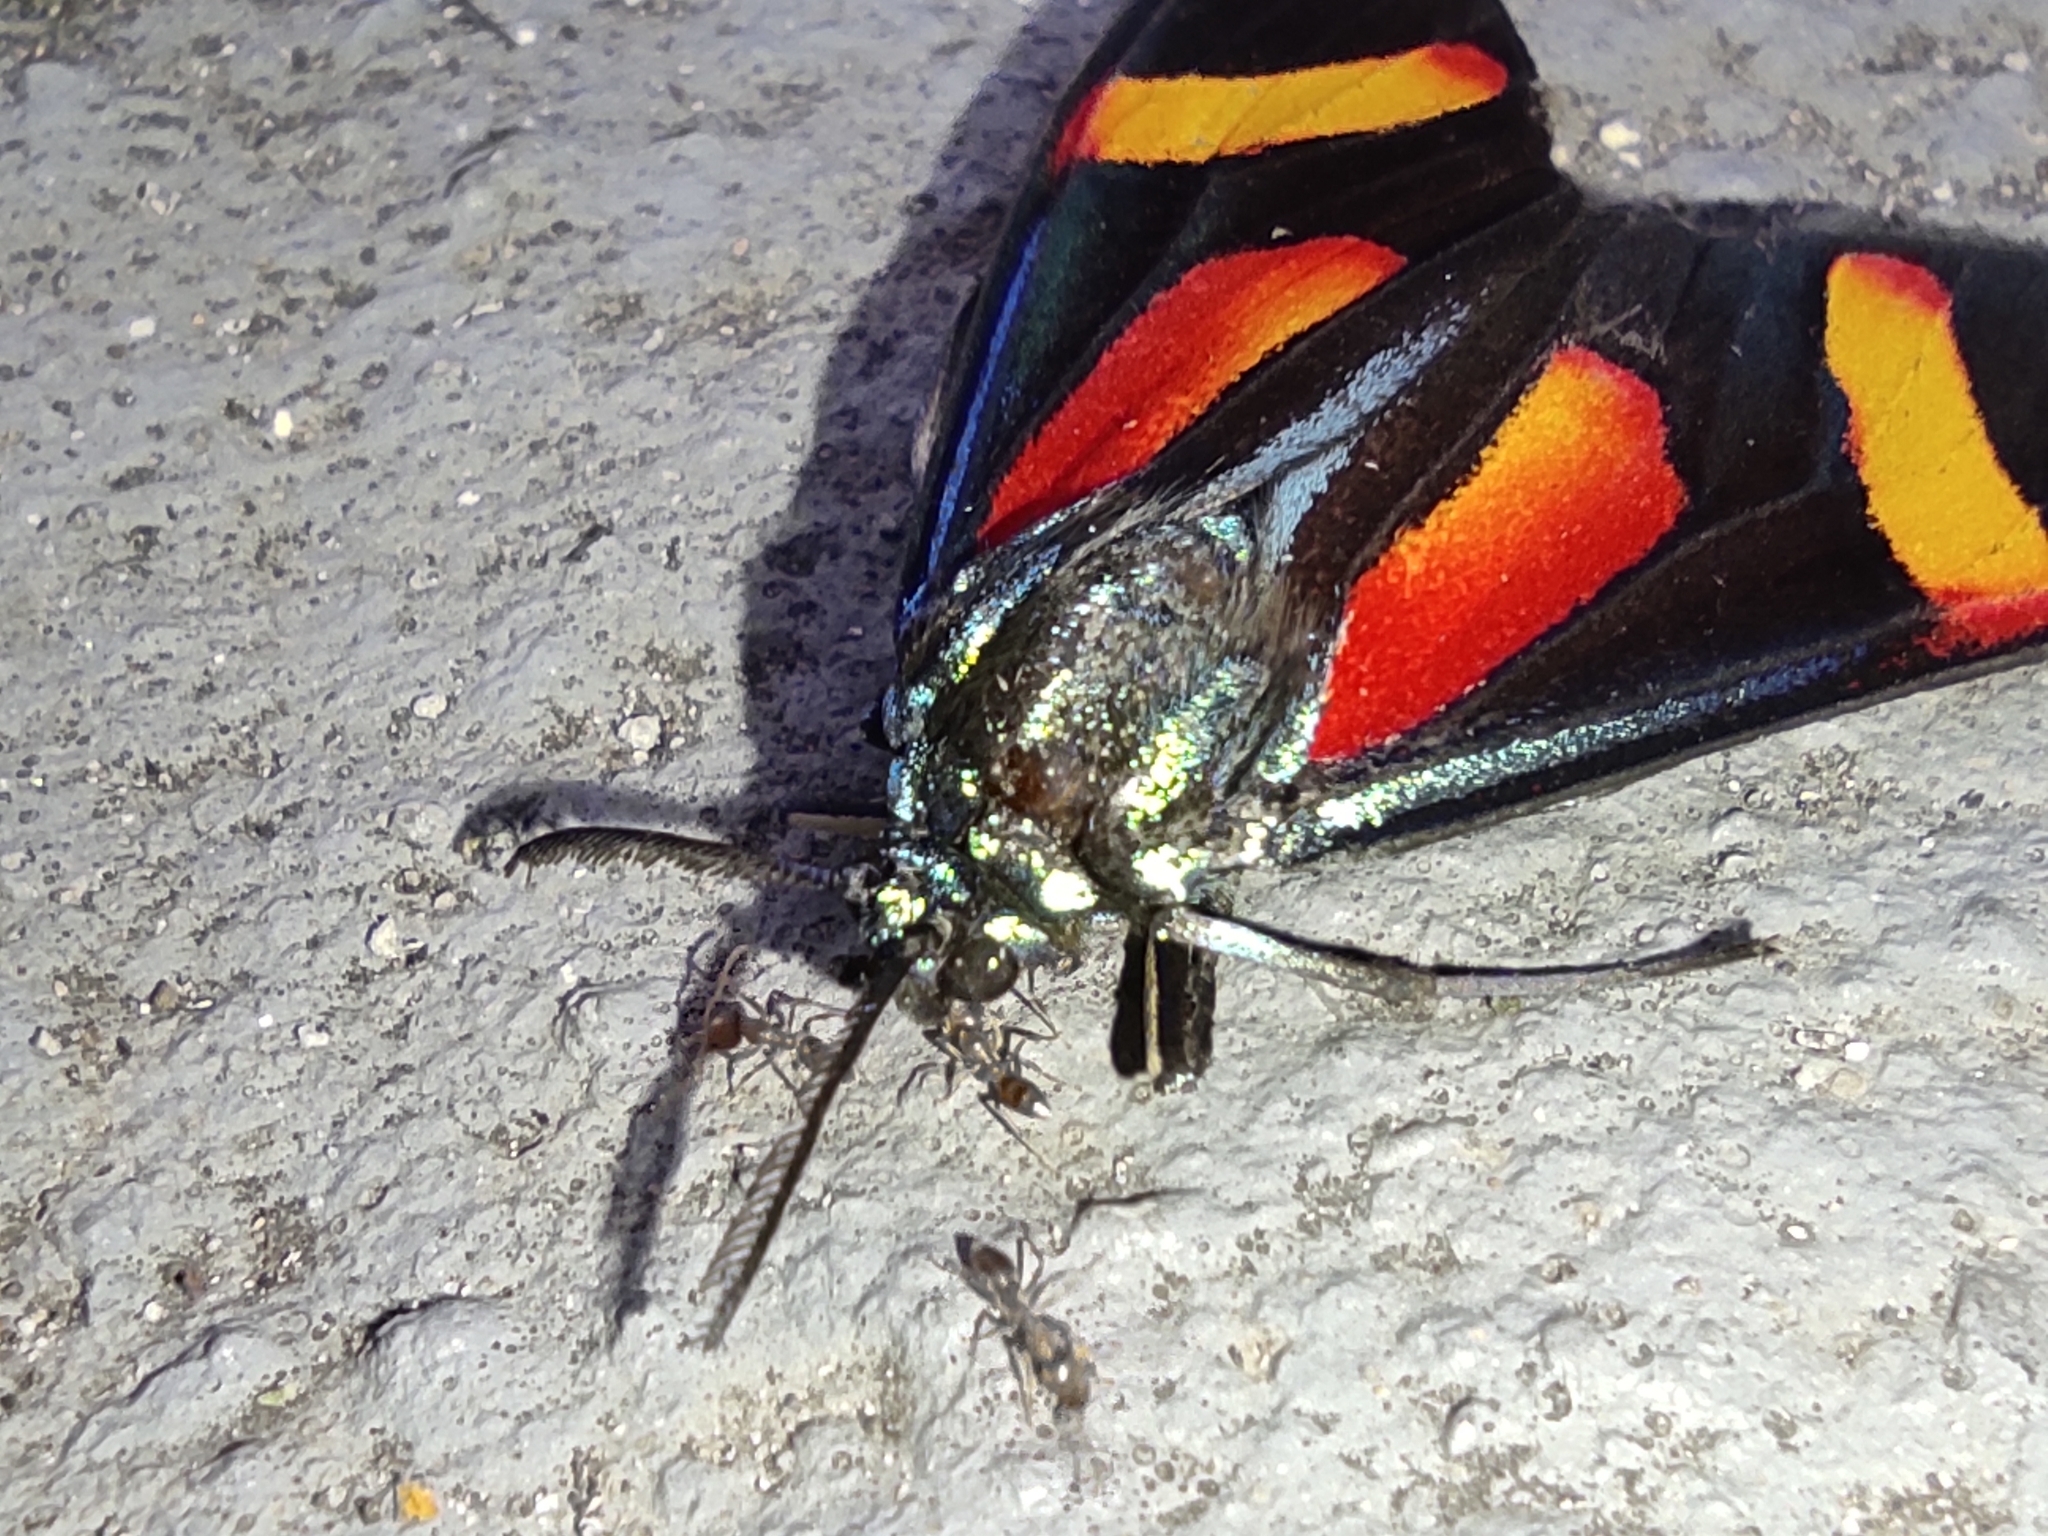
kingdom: Animalia
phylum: Arthropoda
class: Insecta
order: Lepidoptera
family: Erebidae
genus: Cyanopepla
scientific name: Cyanopepla submacula
